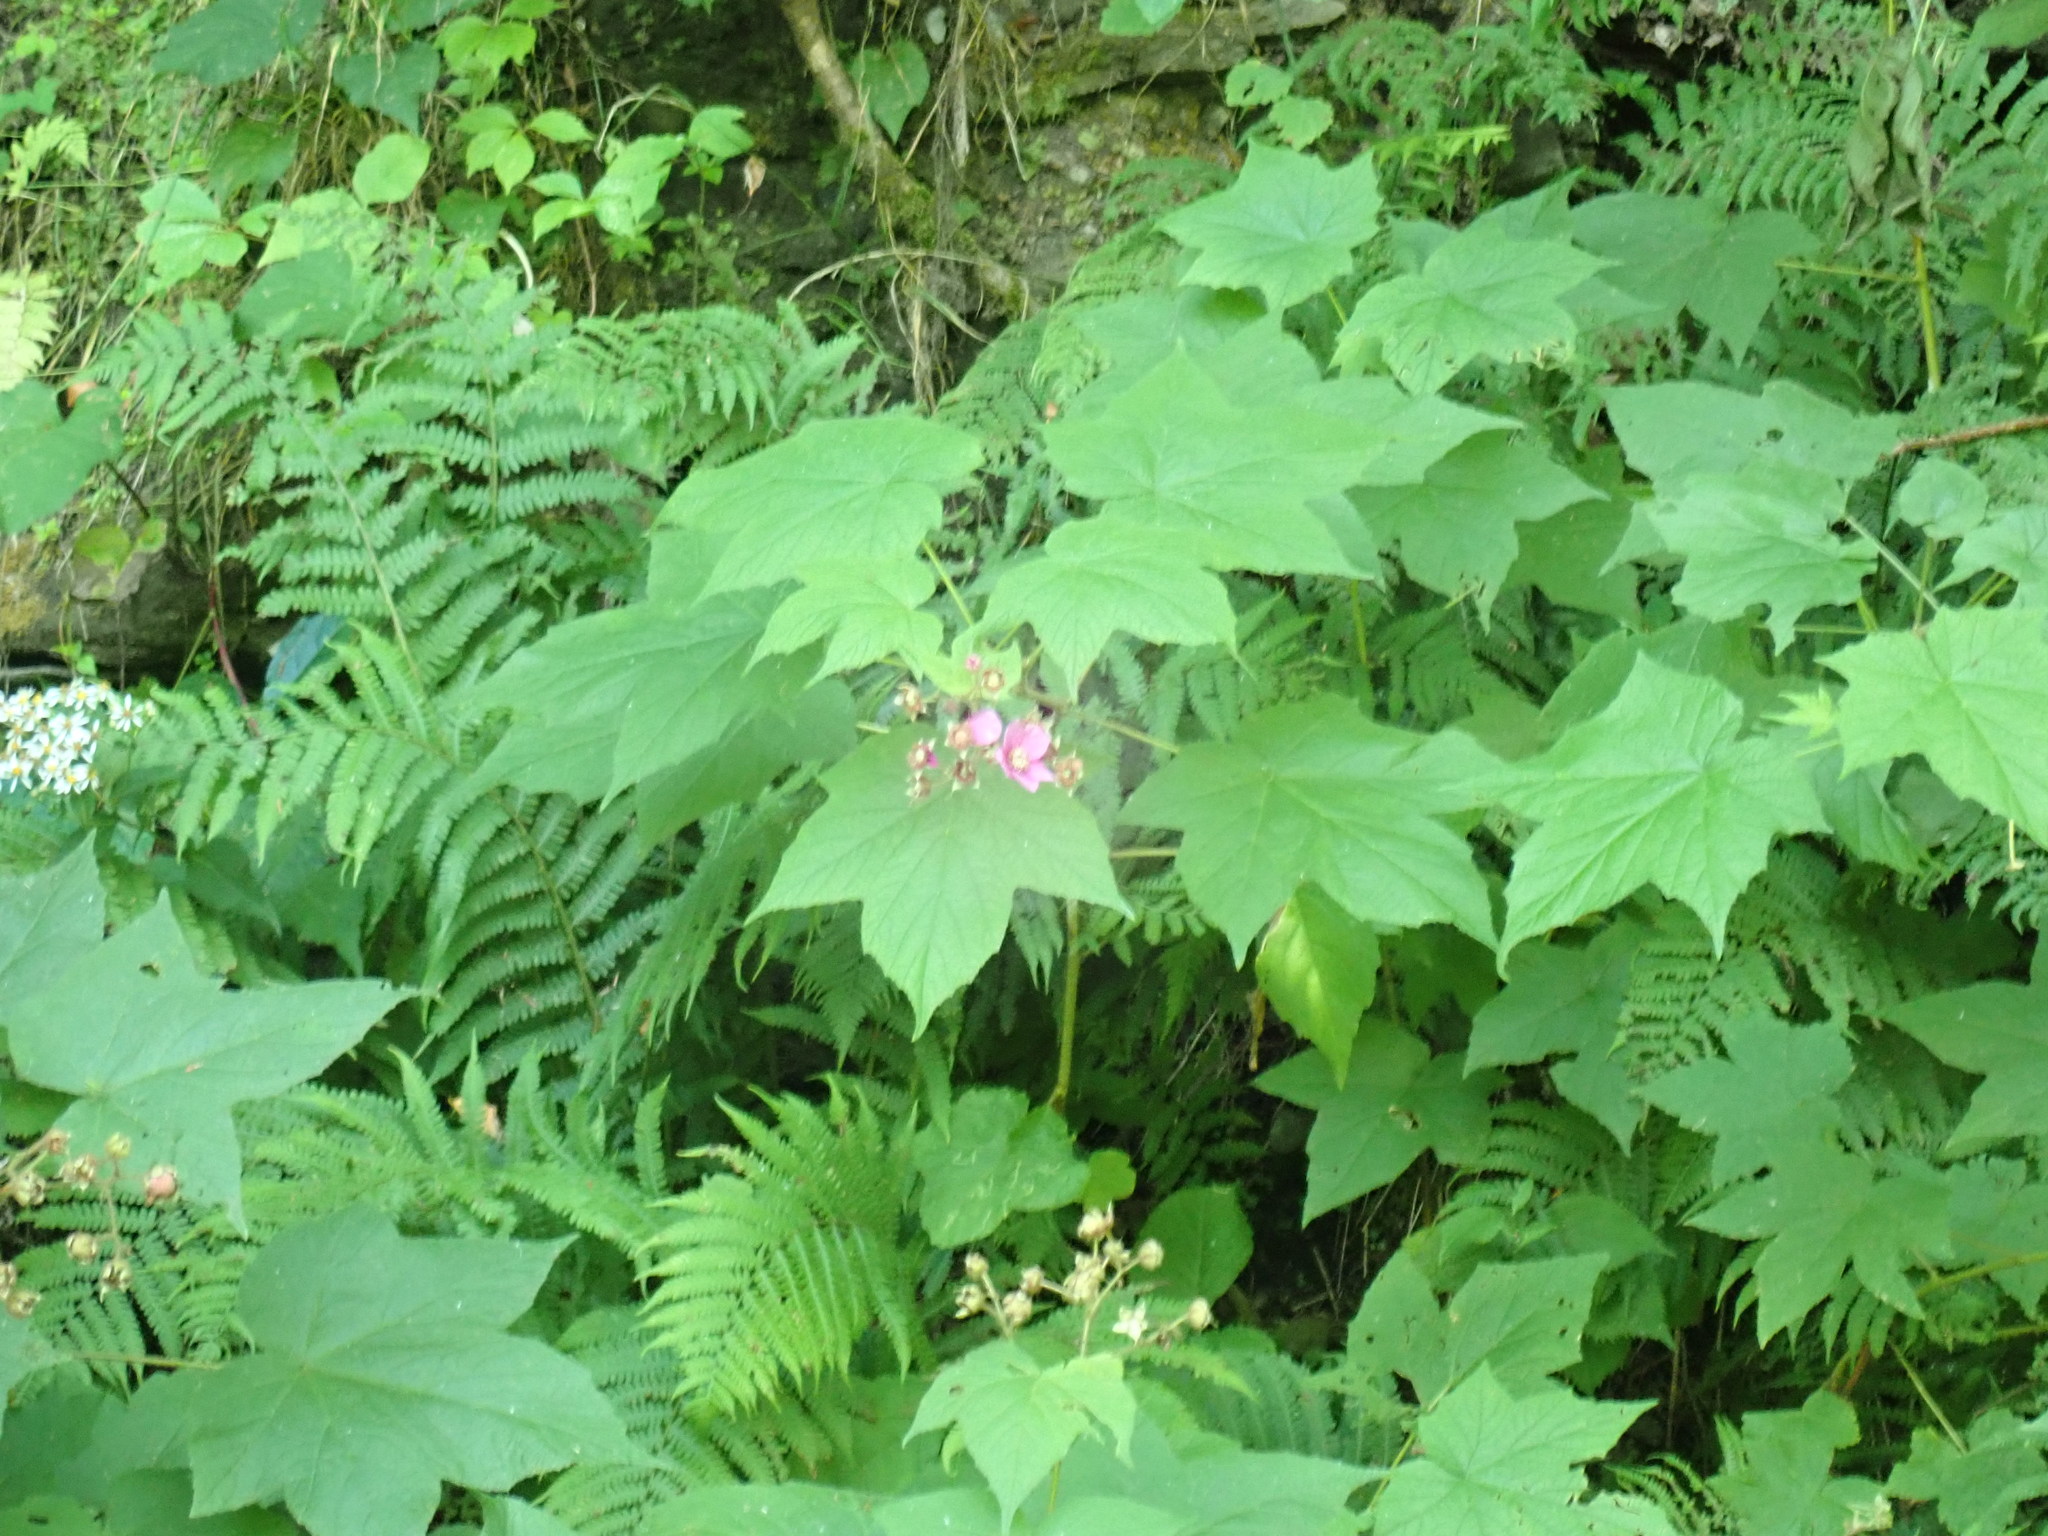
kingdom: Plantae
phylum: Tracheophyta
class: Magnoliopsida
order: Rosales
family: Rosaceae
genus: Rubus
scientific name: Rubus odoratus
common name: Purple-flowered raspberry
